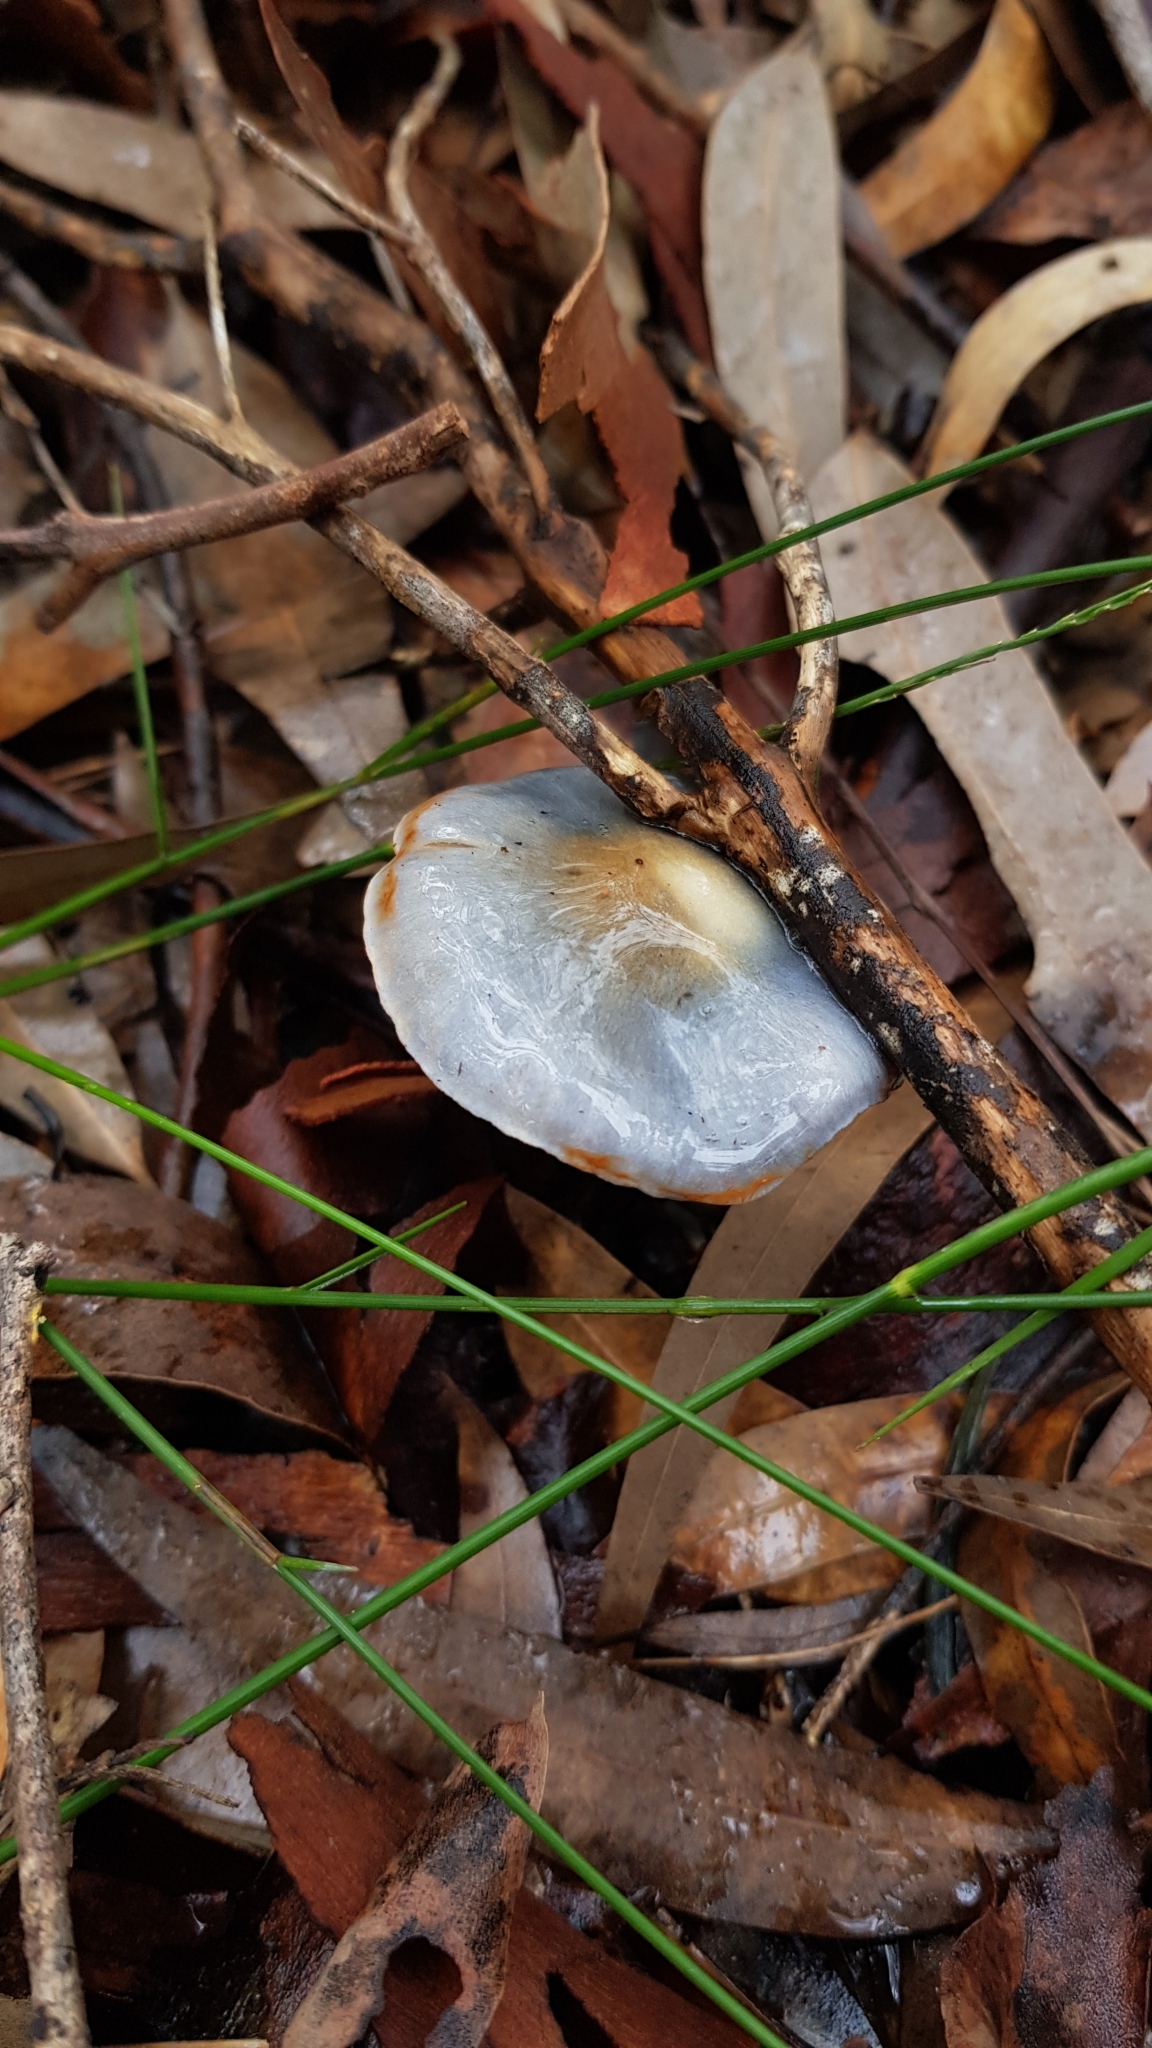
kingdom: Fungi
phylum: Basidiomycota
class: Agaricomycetes
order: Agaricales
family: Cortinariaceae
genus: Cortinarius
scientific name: Cortinarius rotundisporus
